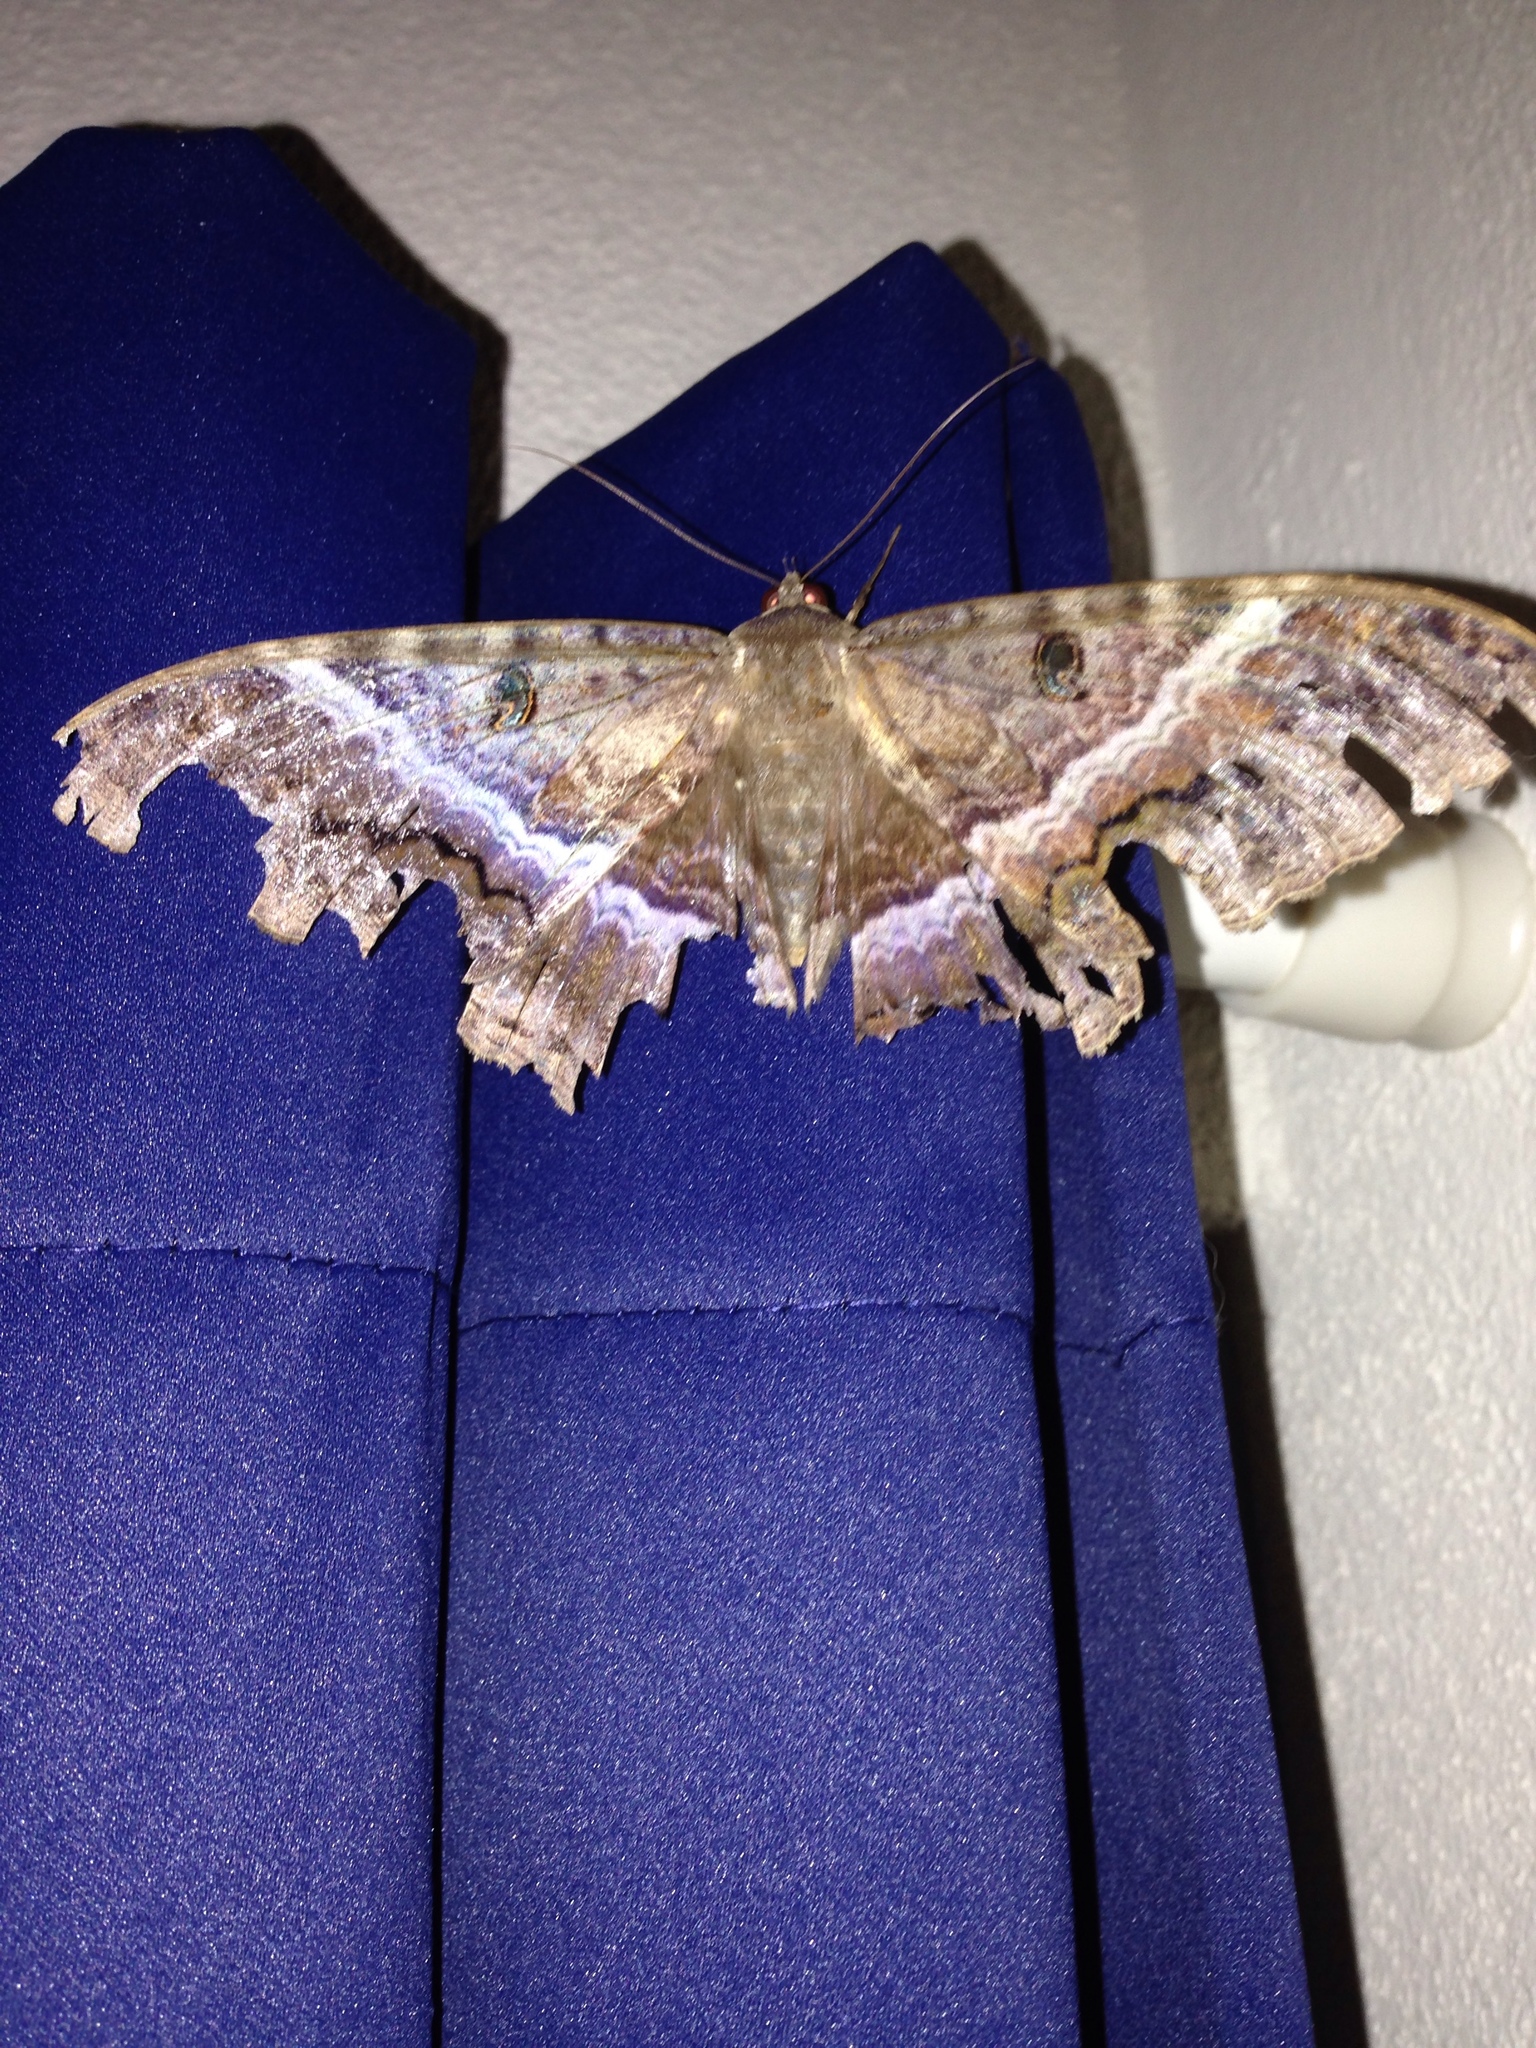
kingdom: Animalia
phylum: Arthropoda
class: Insecta
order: Lepidoptera
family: Erebidae
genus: Ascalapha
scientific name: Ascalapha odorata
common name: Black witch
